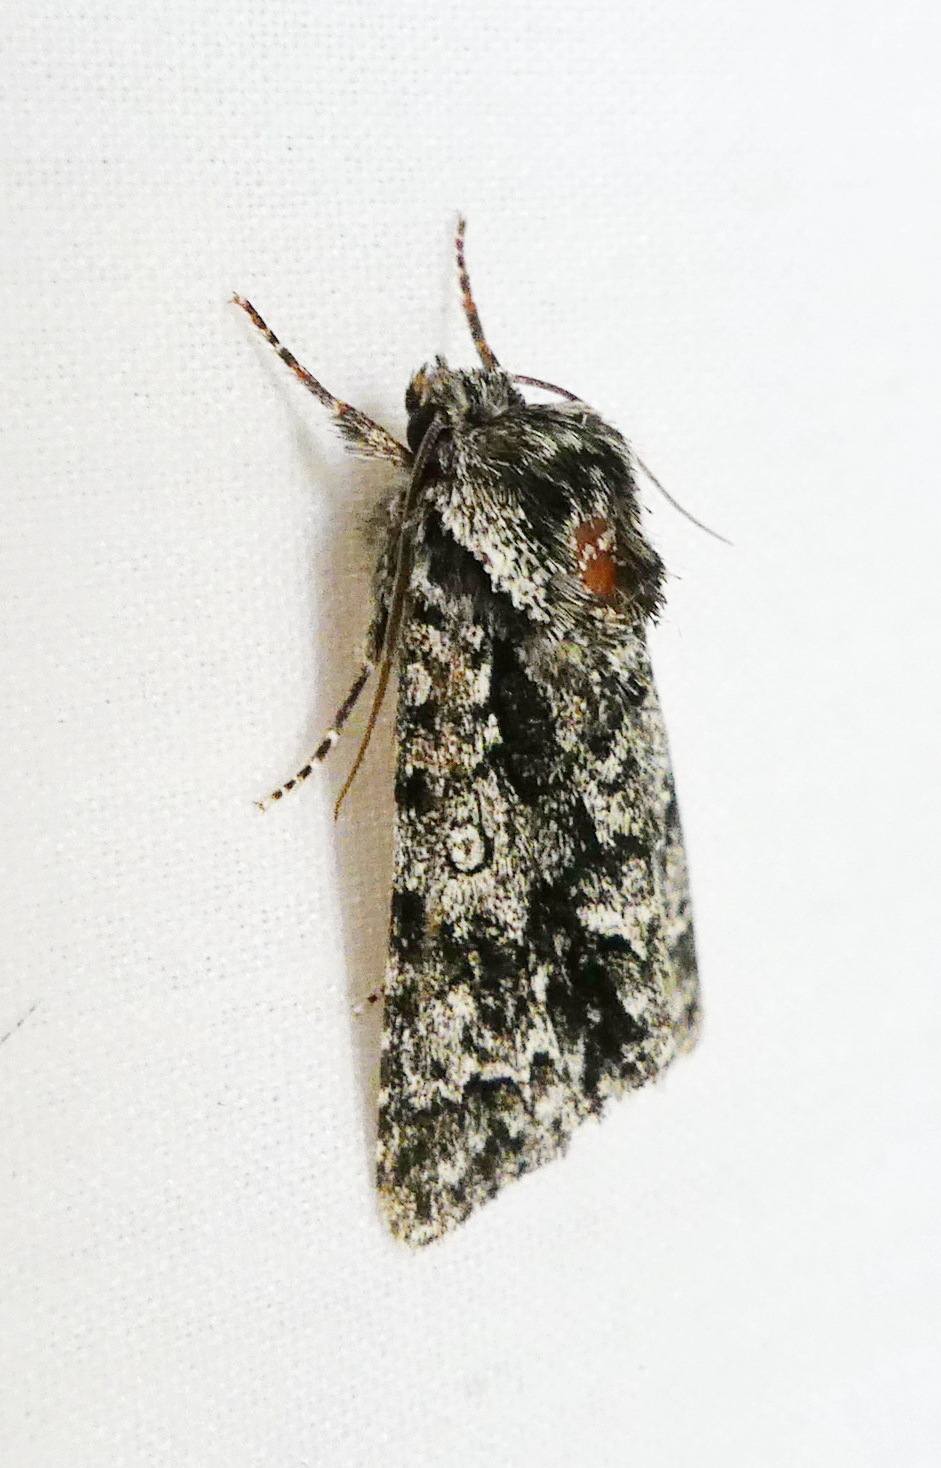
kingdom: Animalia
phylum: Arthropoda
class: Insecta
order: Lepidoptera
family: Noctuidae
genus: Acronicta
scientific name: Acronicta impressa
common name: Impressed dagger
